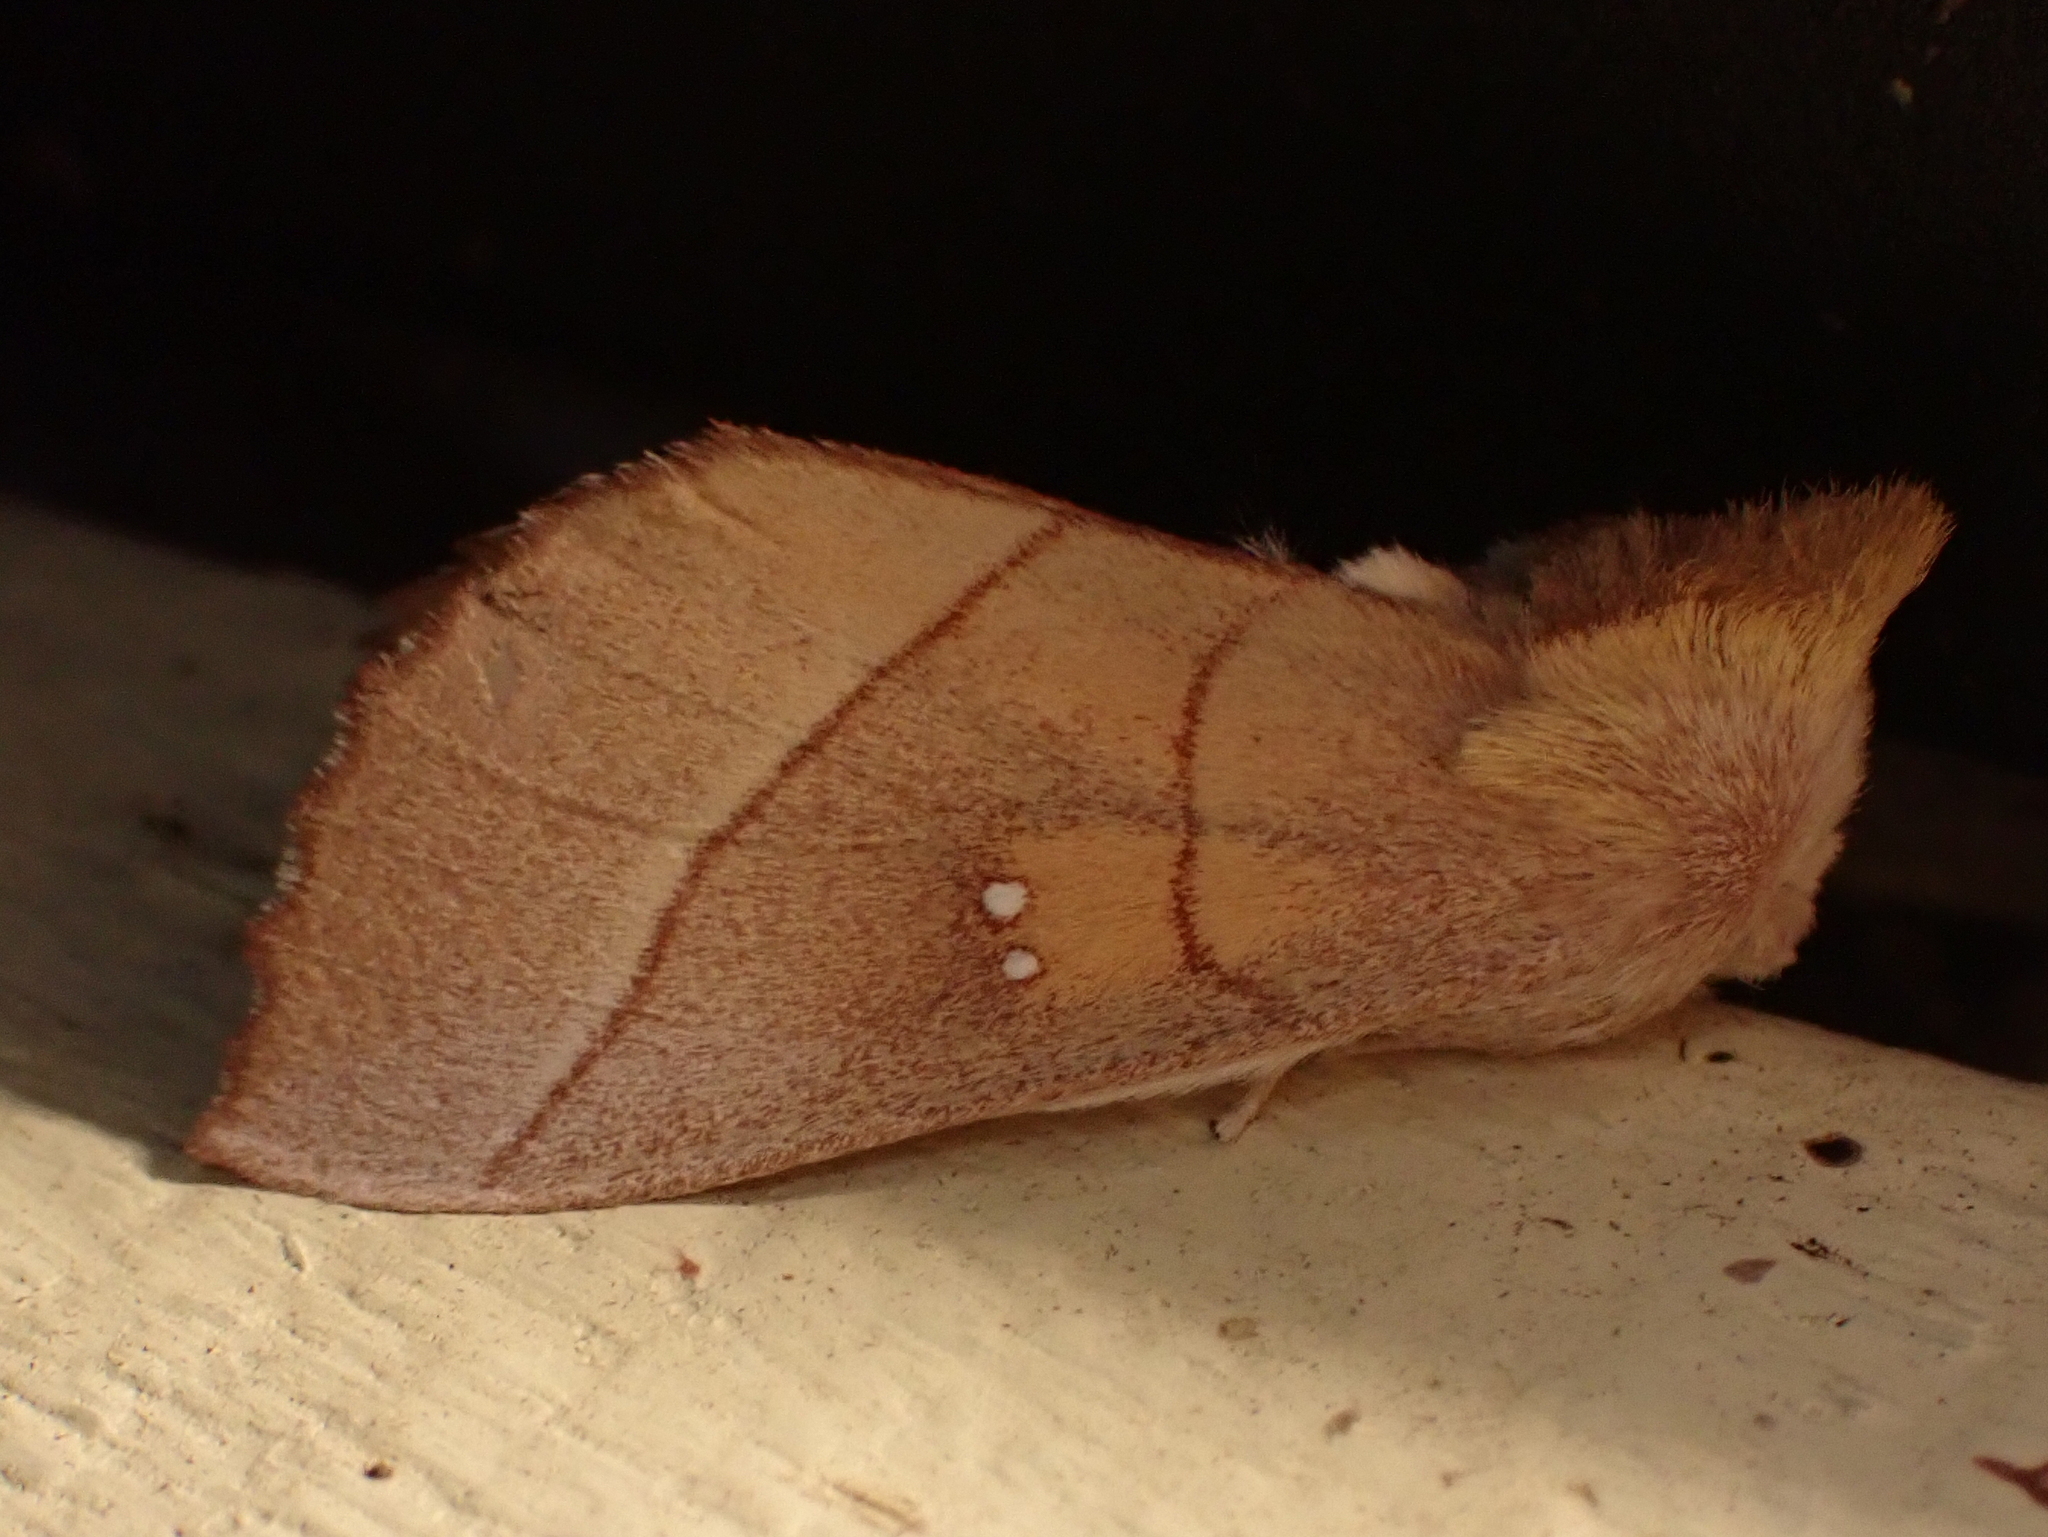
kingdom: Animalia
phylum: Arthropoda
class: Insecta
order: Lepidoptera
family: Notodontidae
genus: Nadata
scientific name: Nadata gibbosa
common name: White-dotted prominent
